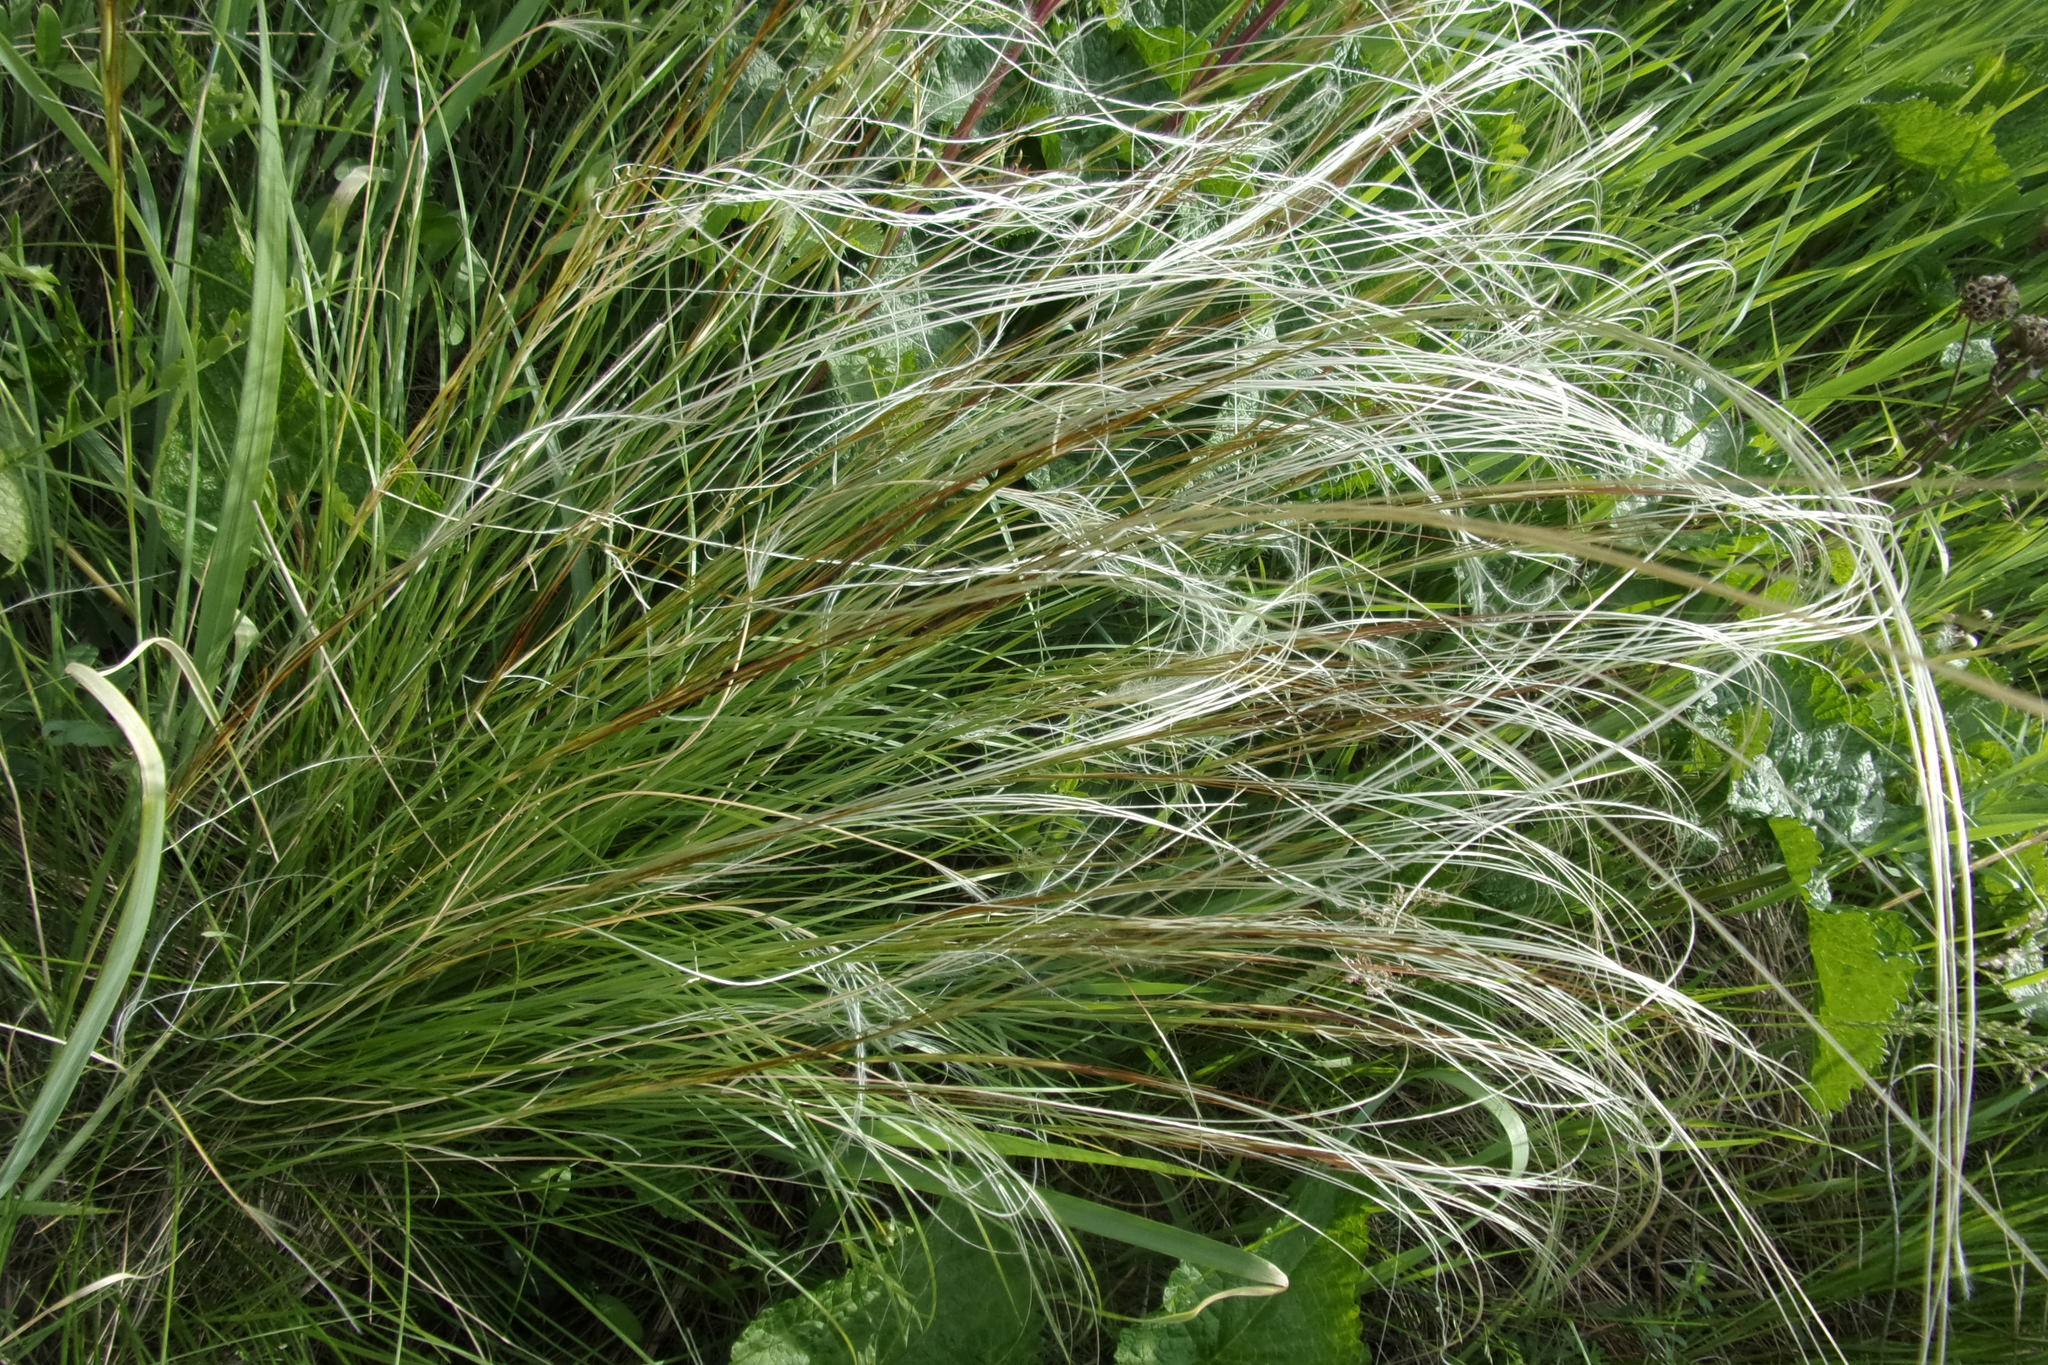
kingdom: Plantae
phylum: Tracheophyta
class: Liliopsida
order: Poales
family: Poaceae
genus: Stipa
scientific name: Stipa pennata
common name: European feather grass
